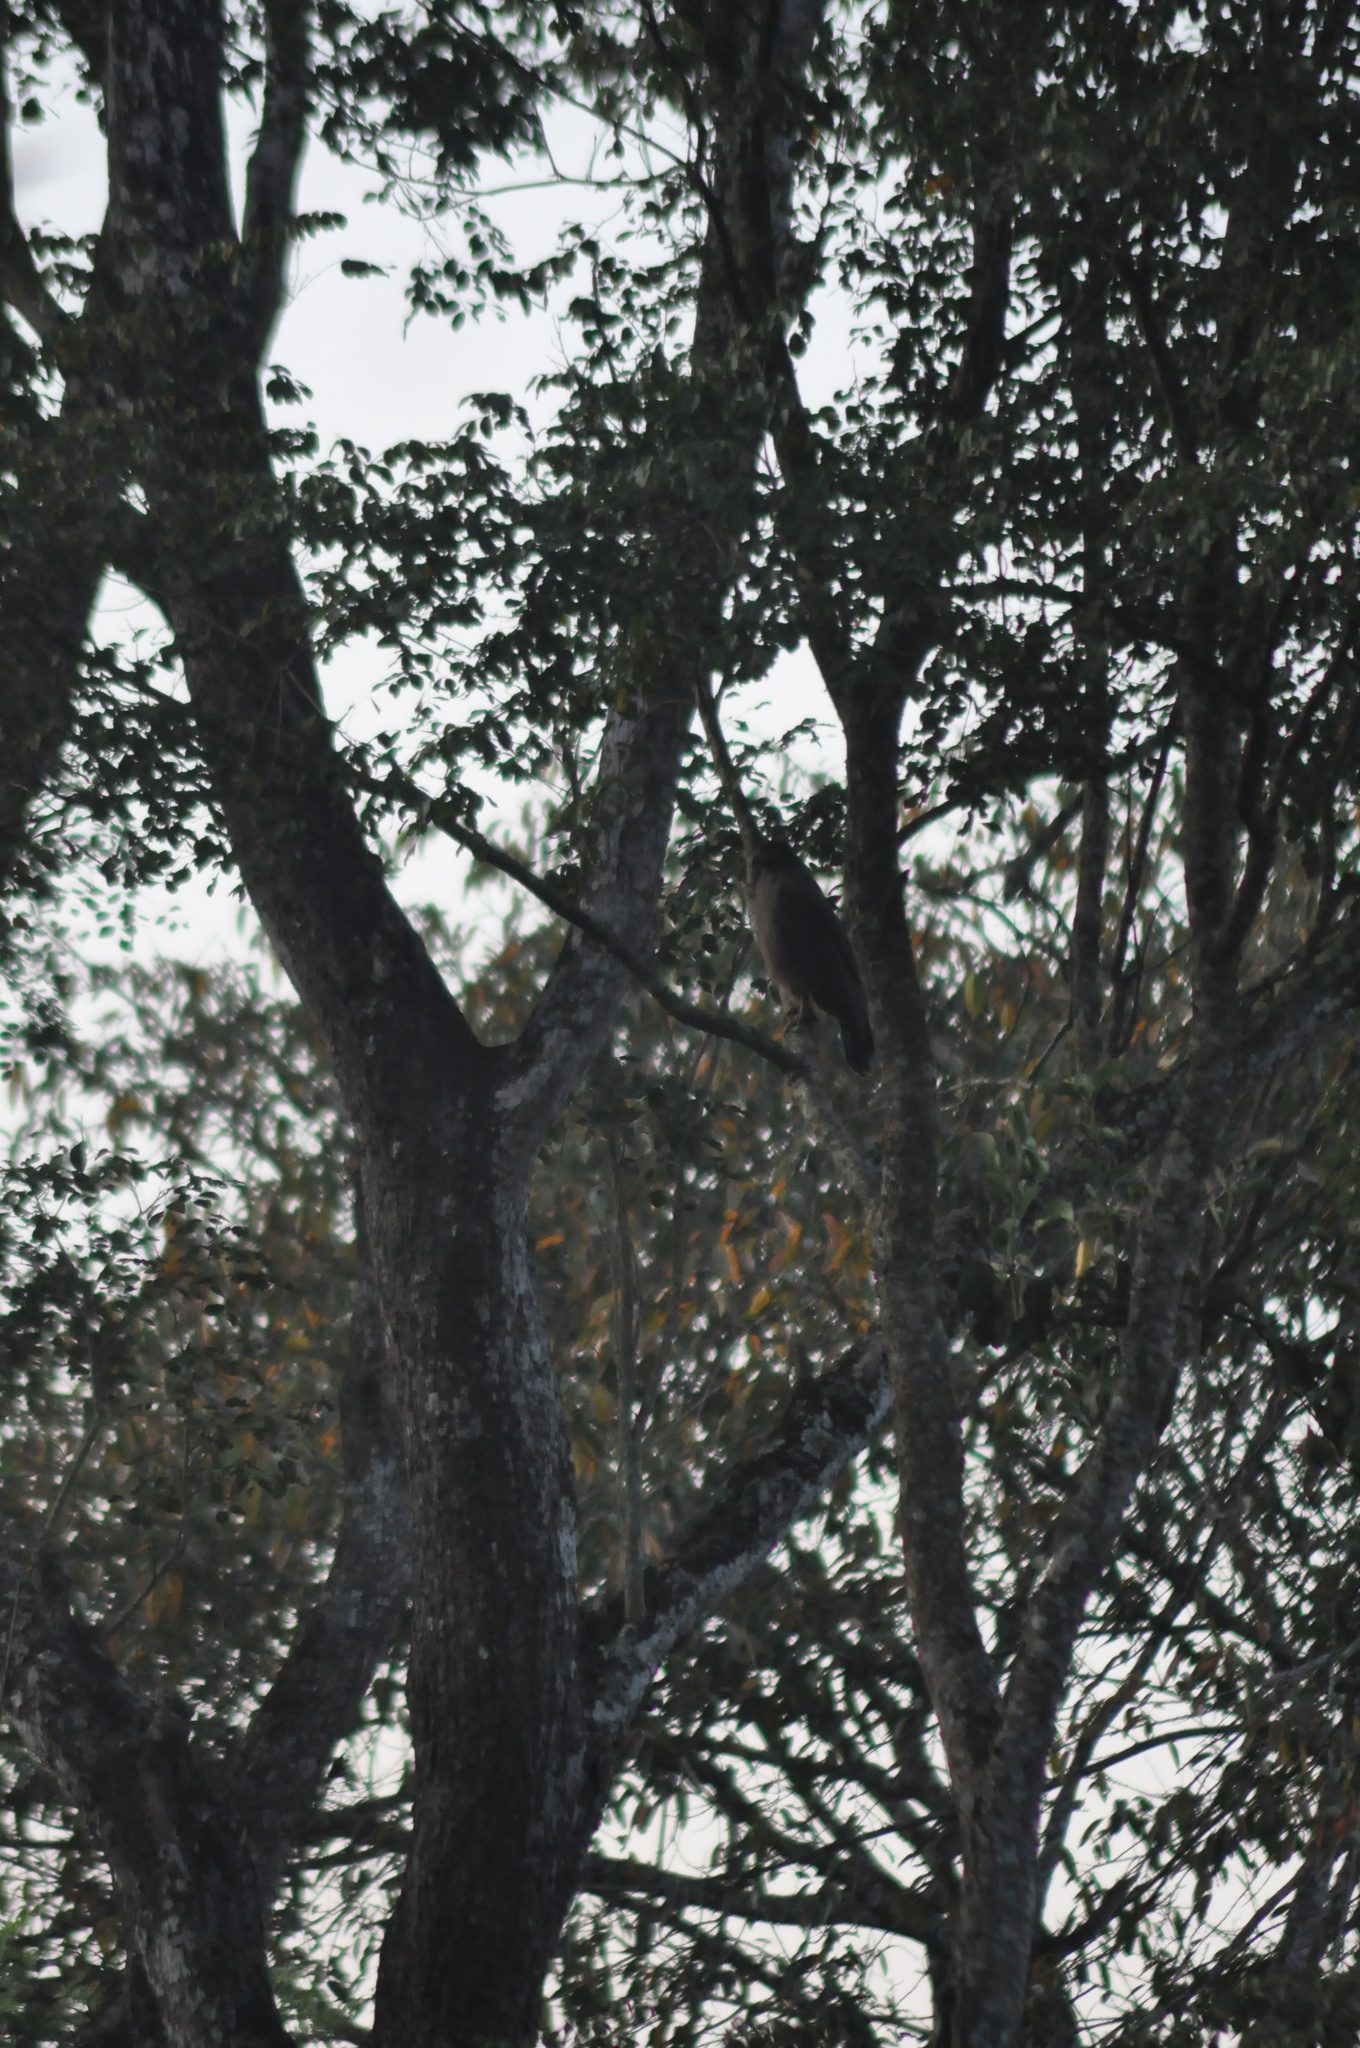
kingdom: Animalia
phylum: Chordata
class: Aves
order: Accipitriformes
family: Accipitridae
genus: Spilornis
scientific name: Spilornis cheela
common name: Crested serpent eagle
